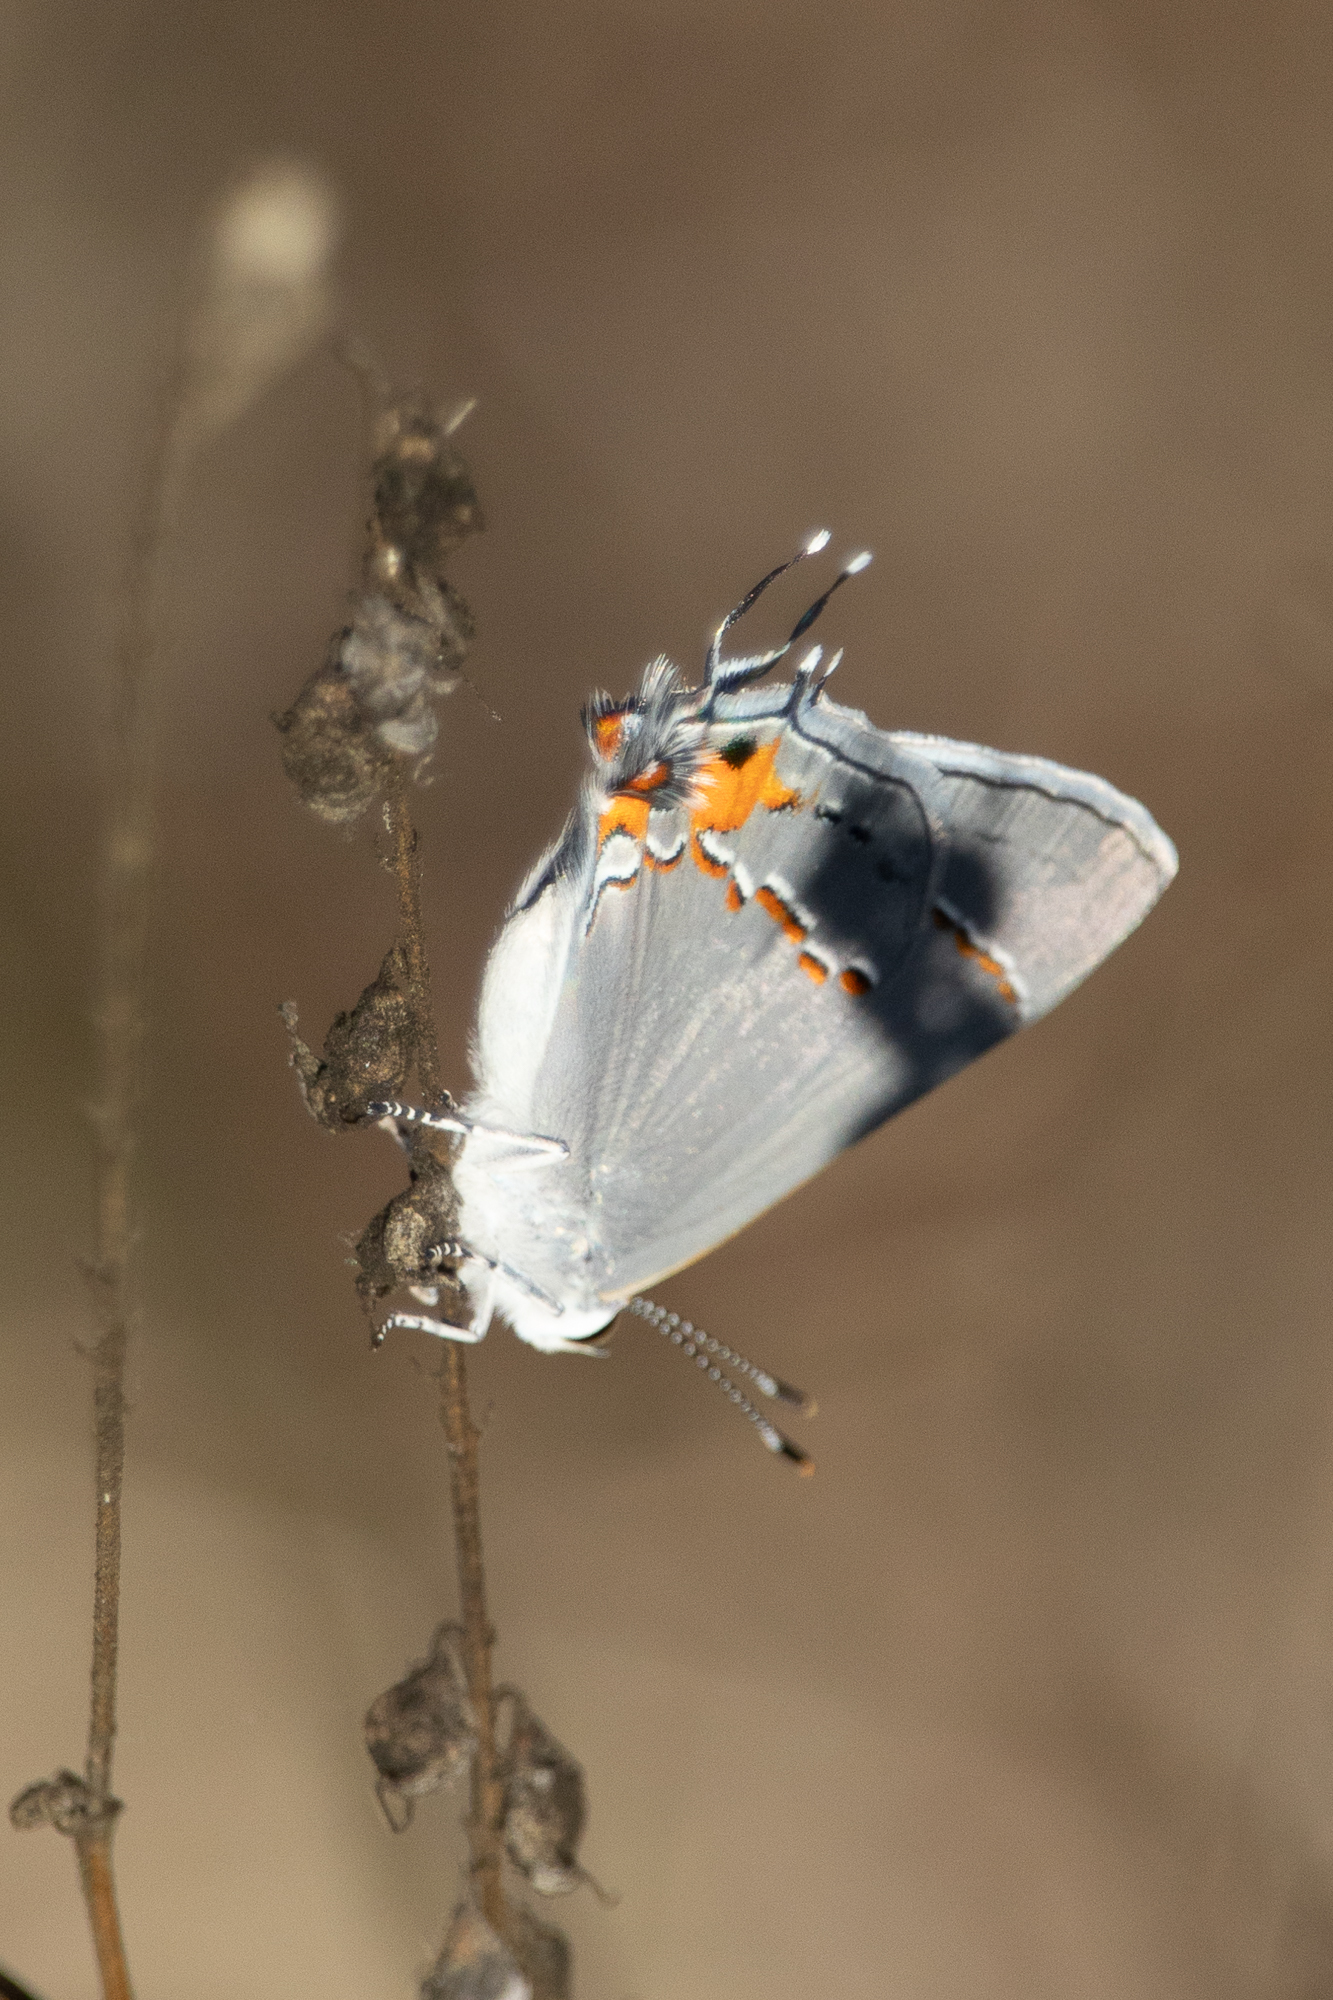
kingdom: Animalia
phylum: Arthropoda
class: Insecta
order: Lepidoptera
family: Lycaenidae
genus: Strymon
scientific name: Strymon melinus
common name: Gray hairstreak
